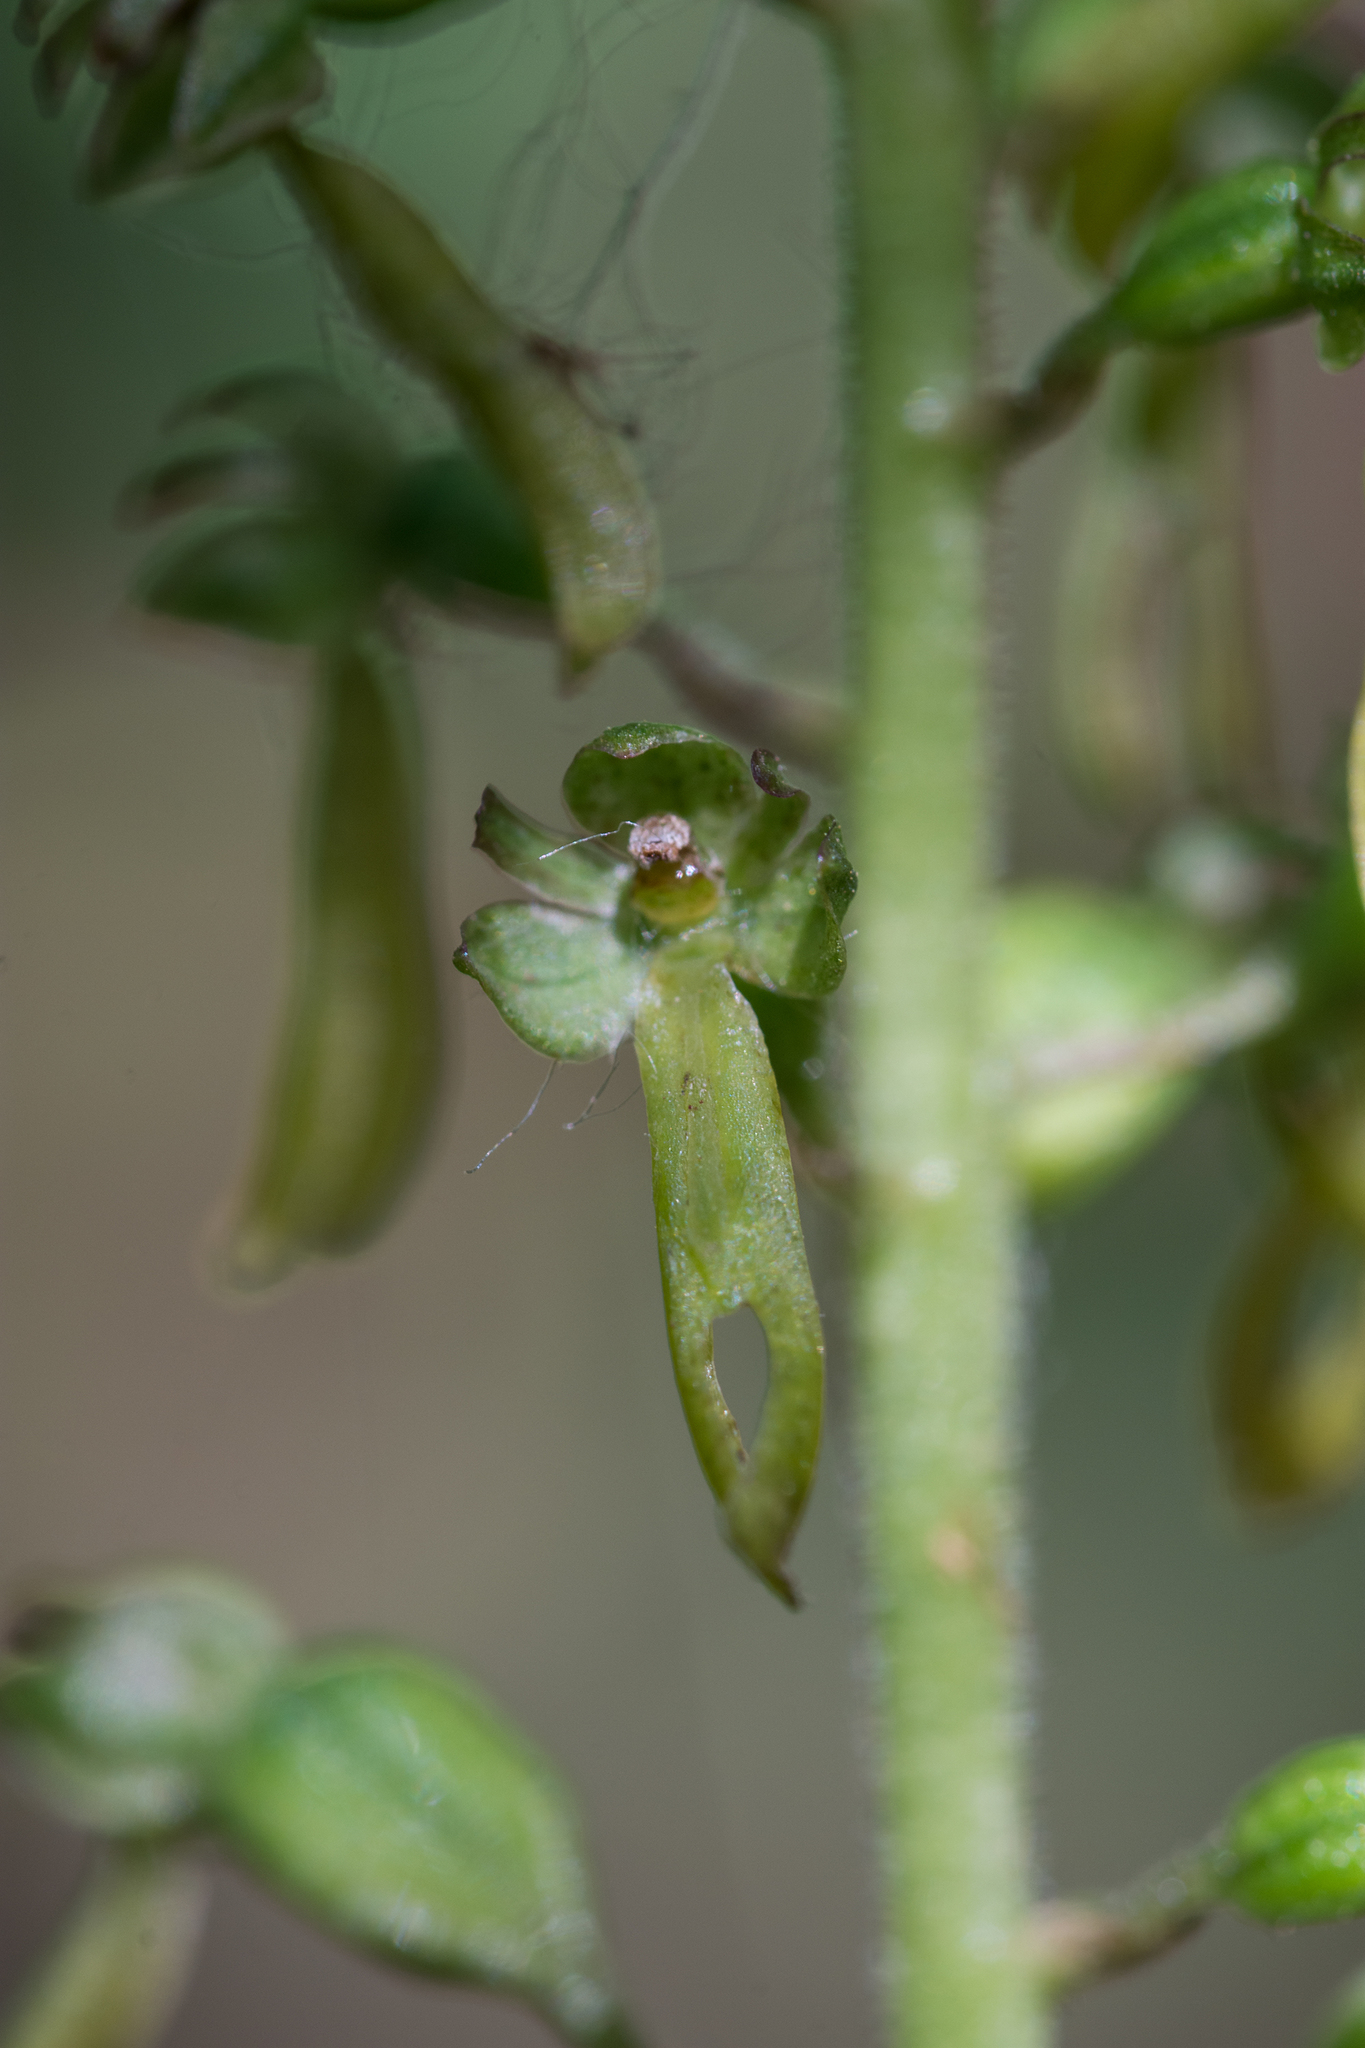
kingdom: Plantae
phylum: Tracheophyta
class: Liliopsida
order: Asparagales
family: Orchidaceae
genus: Neottia
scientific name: Neottia ovata
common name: Common twayblade
